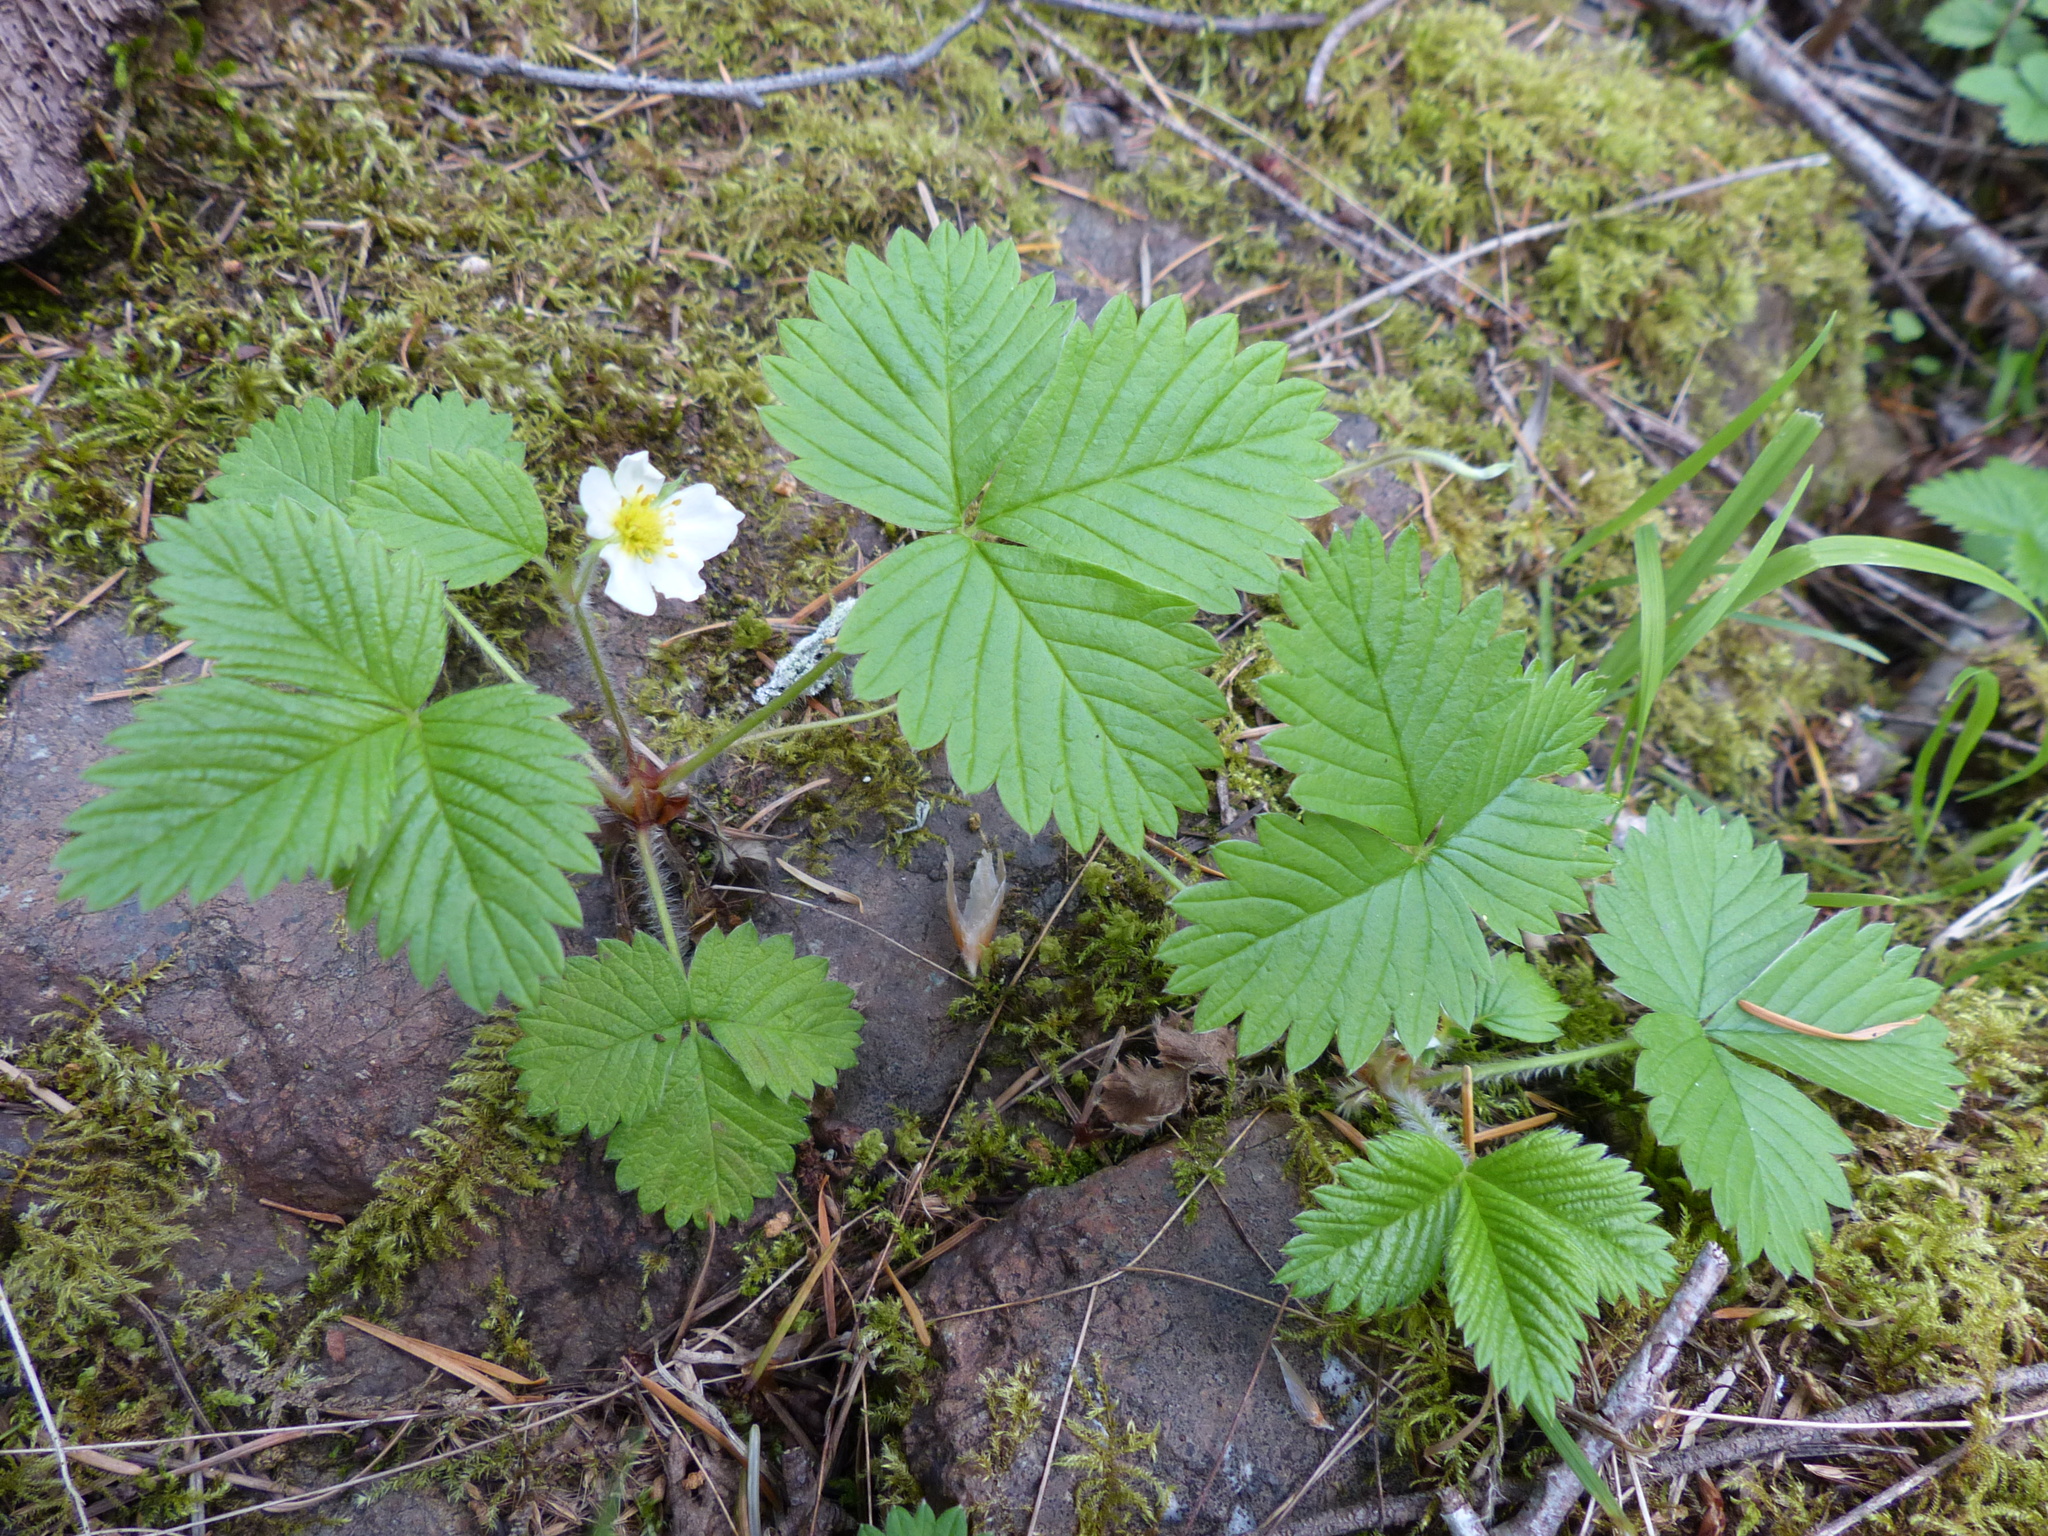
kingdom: Plantae
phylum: Tracheophyta
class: Magnoliopsida
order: Rosales
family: Rosaceae
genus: Fragaria
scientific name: Fragaria vesca
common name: Wild strawberry
